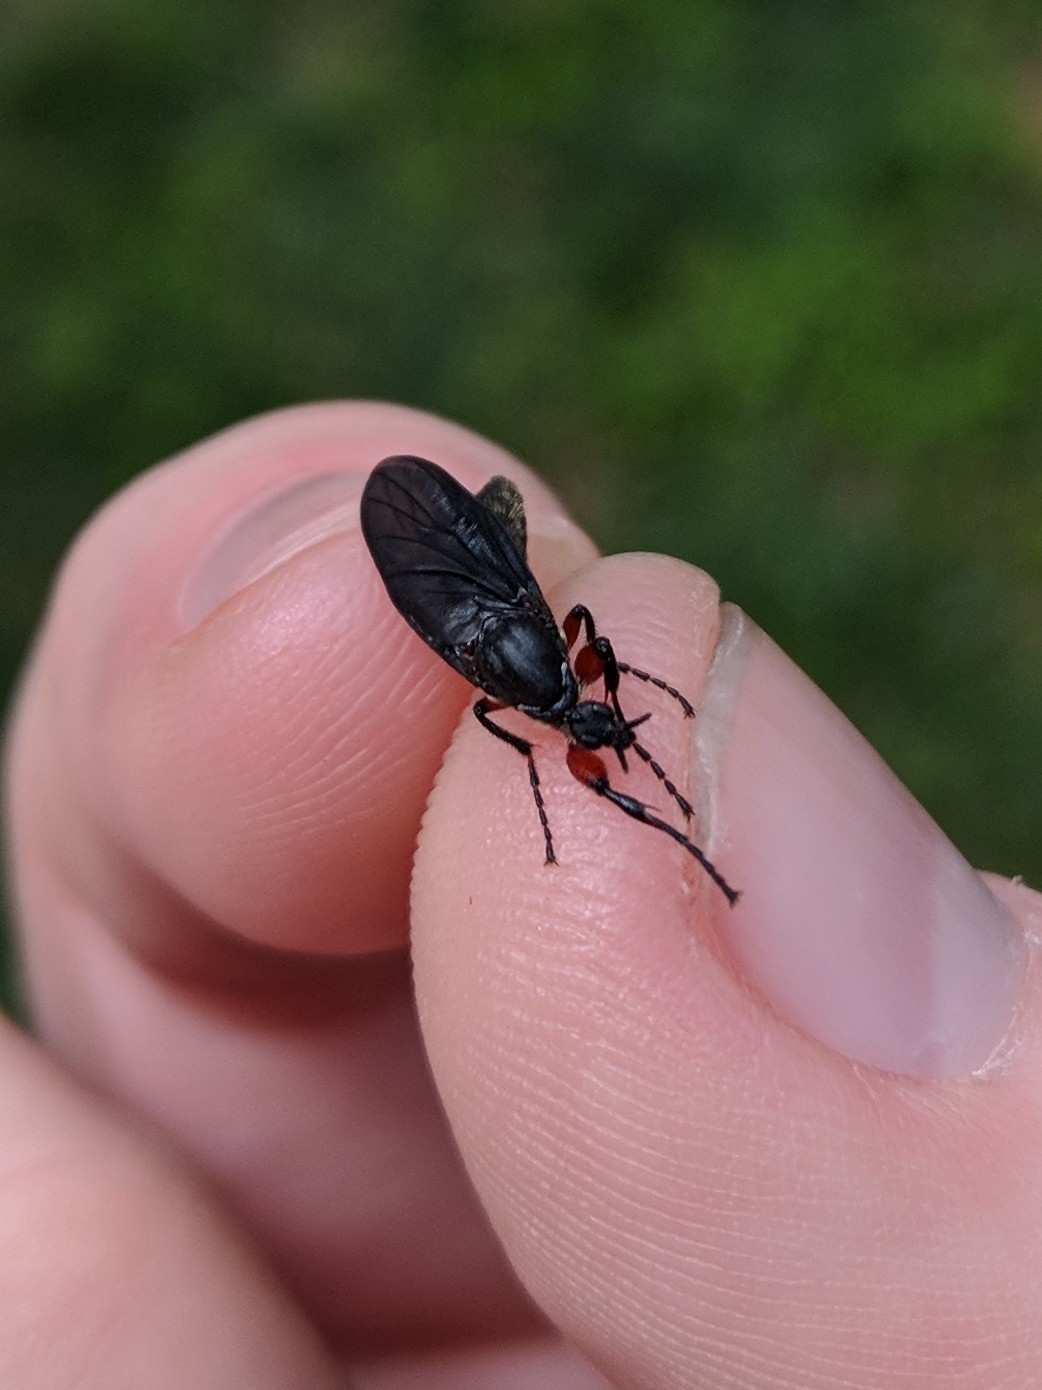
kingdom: Animalia
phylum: Arthropoda
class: Insecta
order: Diptera
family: Bibionidae
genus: Bibio
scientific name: Bibio femoratus
